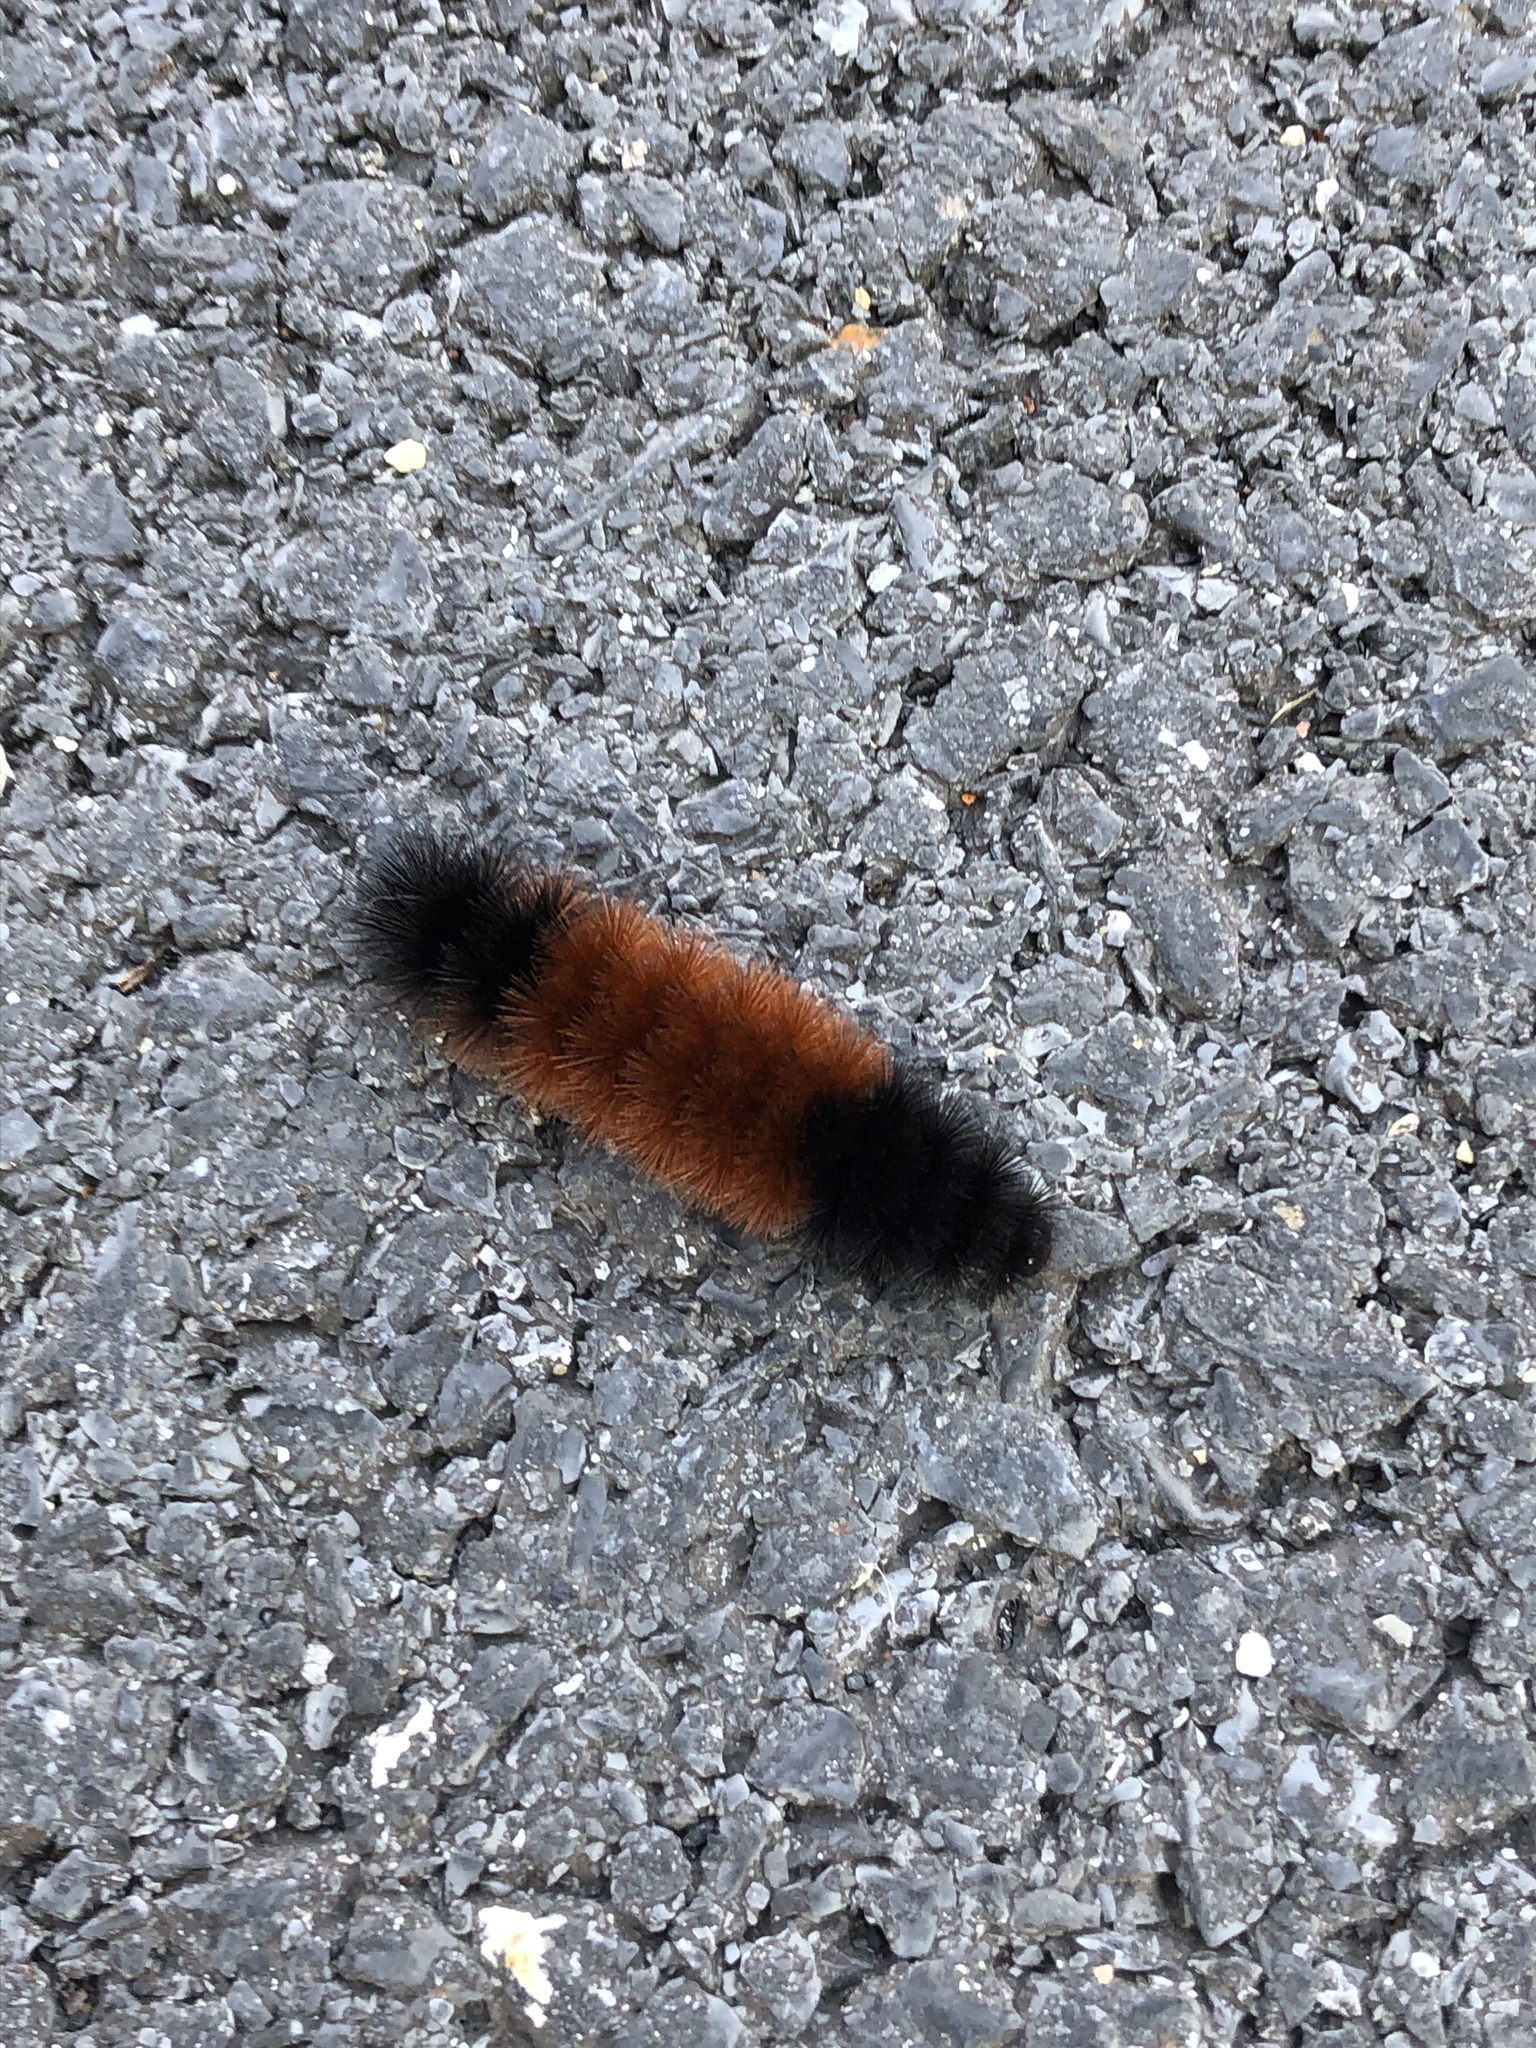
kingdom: Animalia
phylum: Arthropoda
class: Insecta
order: Lepidoptera
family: Erebidae
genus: Pyrrharctia
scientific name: Pyrrharctia isabella
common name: Isabella tiger moth
